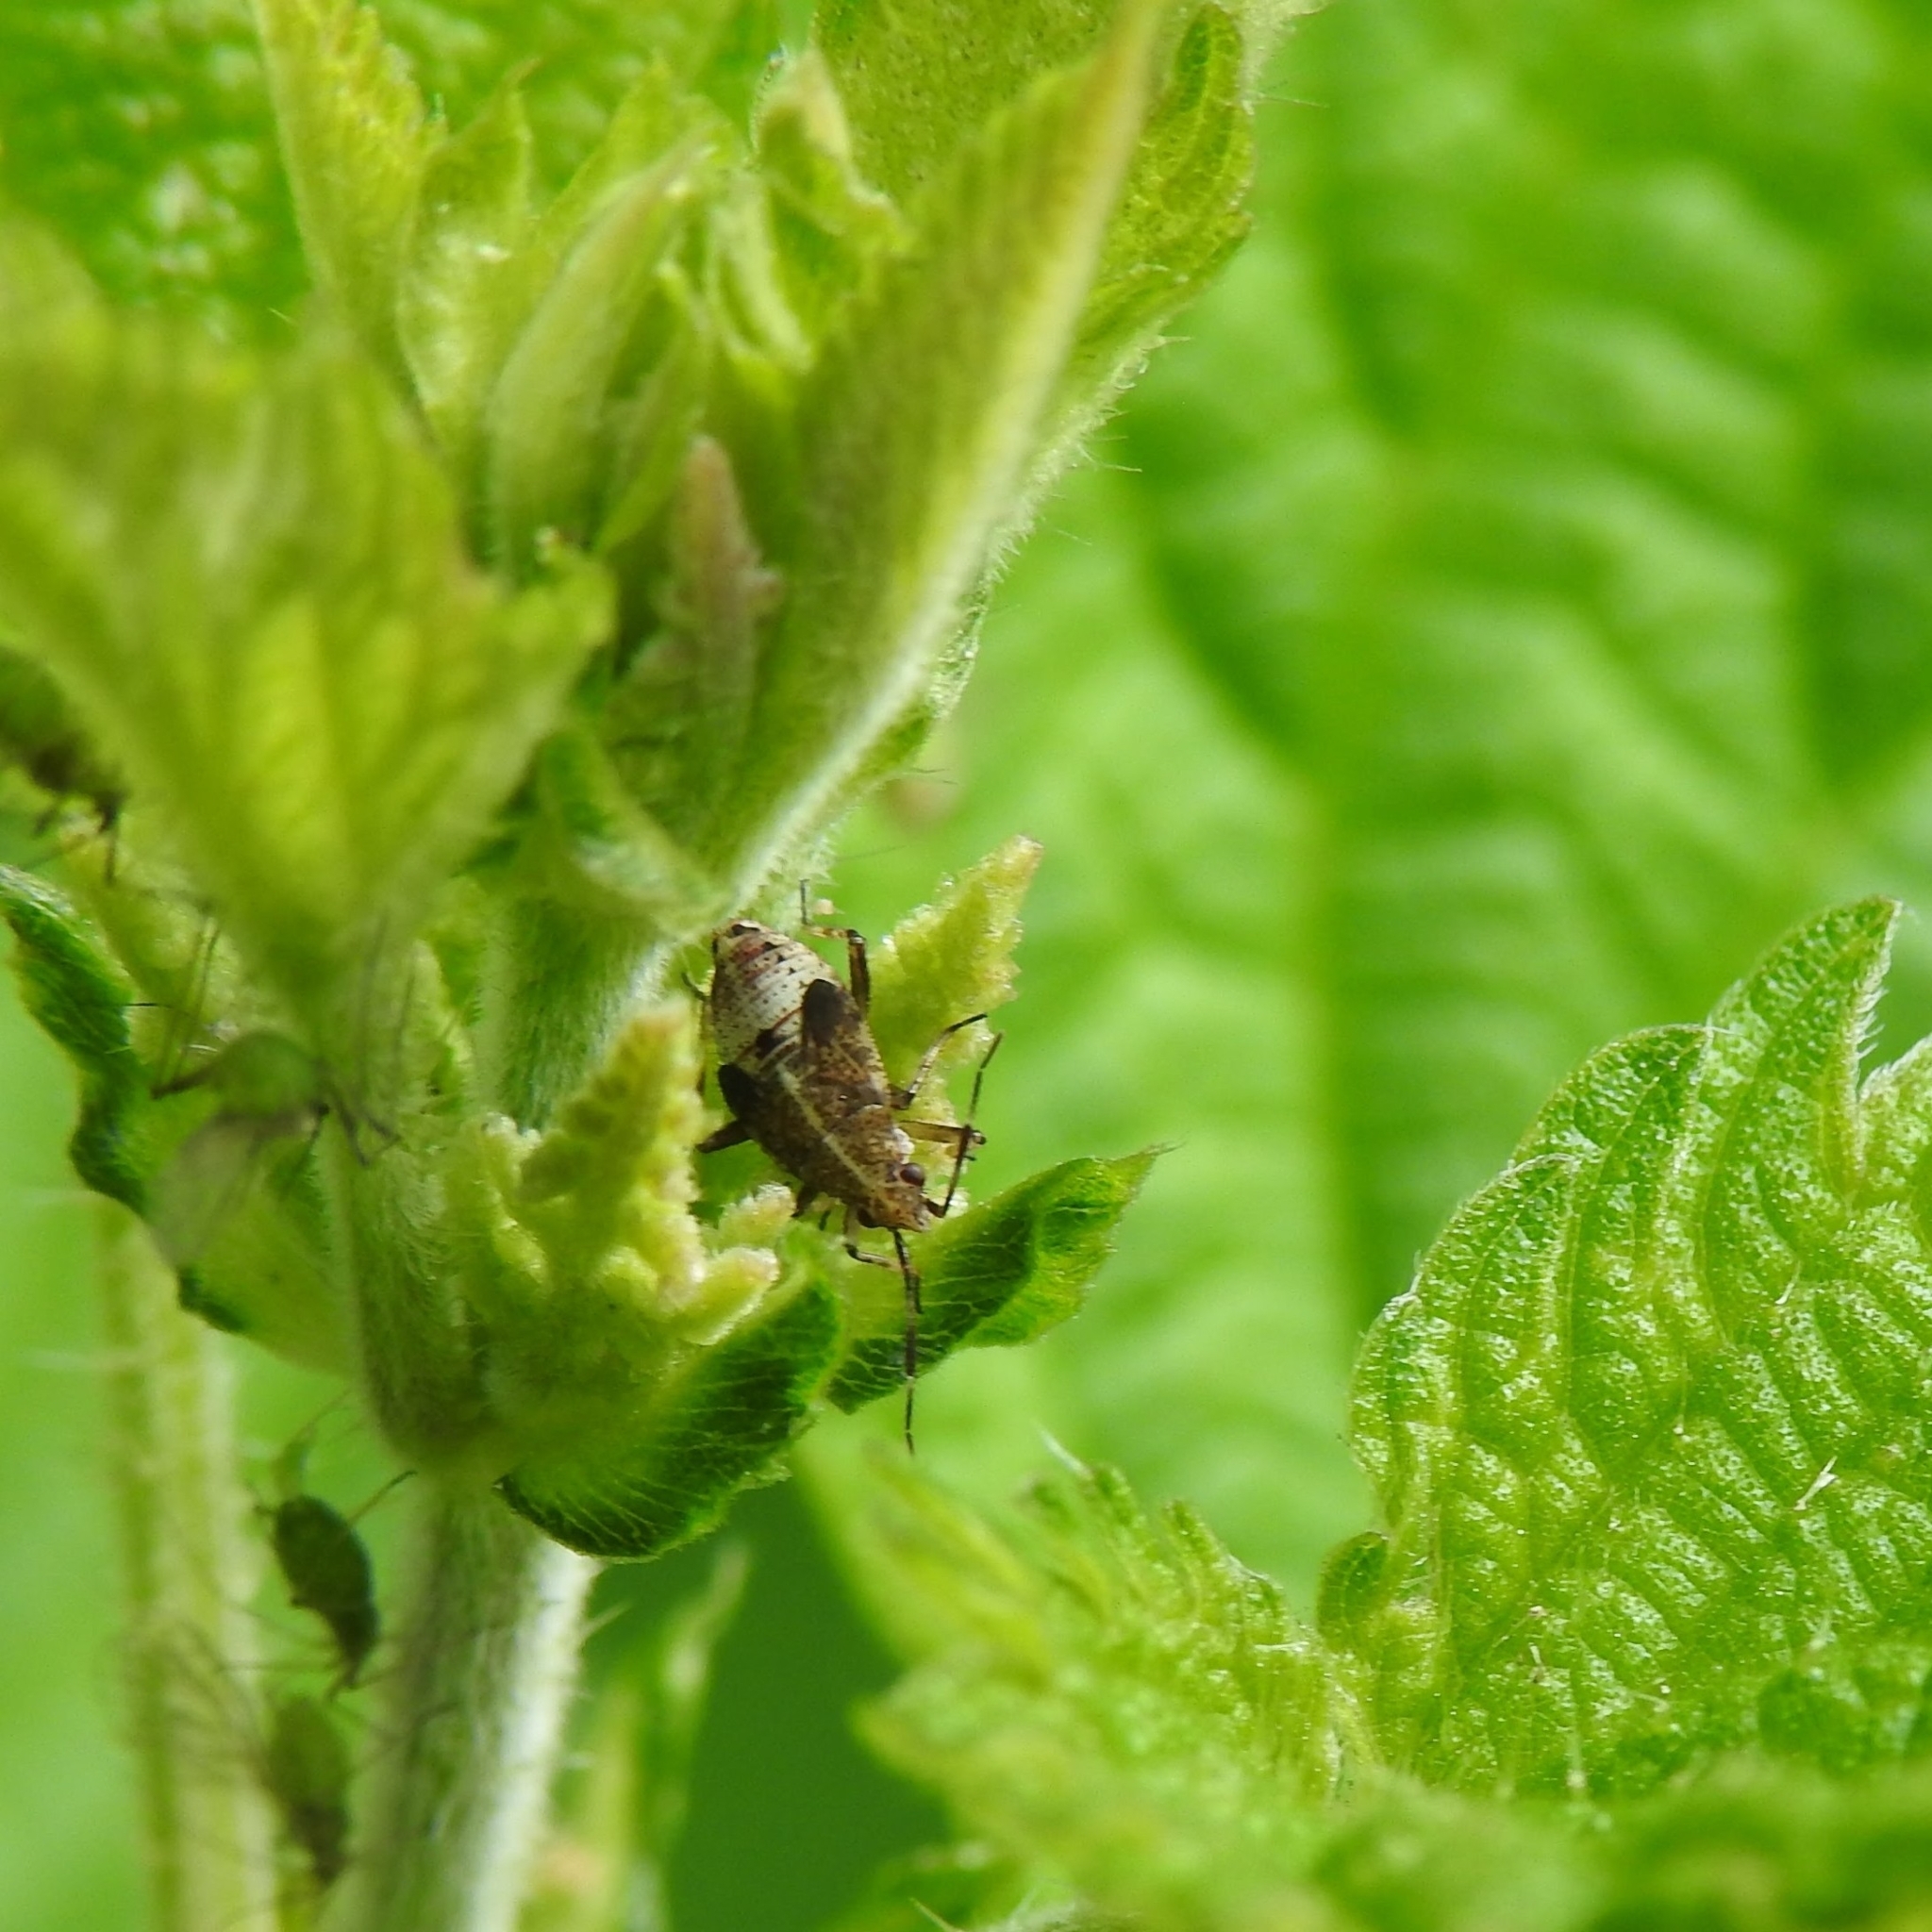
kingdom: Animalia
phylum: Arthropoda
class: Insecta
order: Hemiptera
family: Miridae
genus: Deraeocoris
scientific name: Deraeocoris flavilinea
